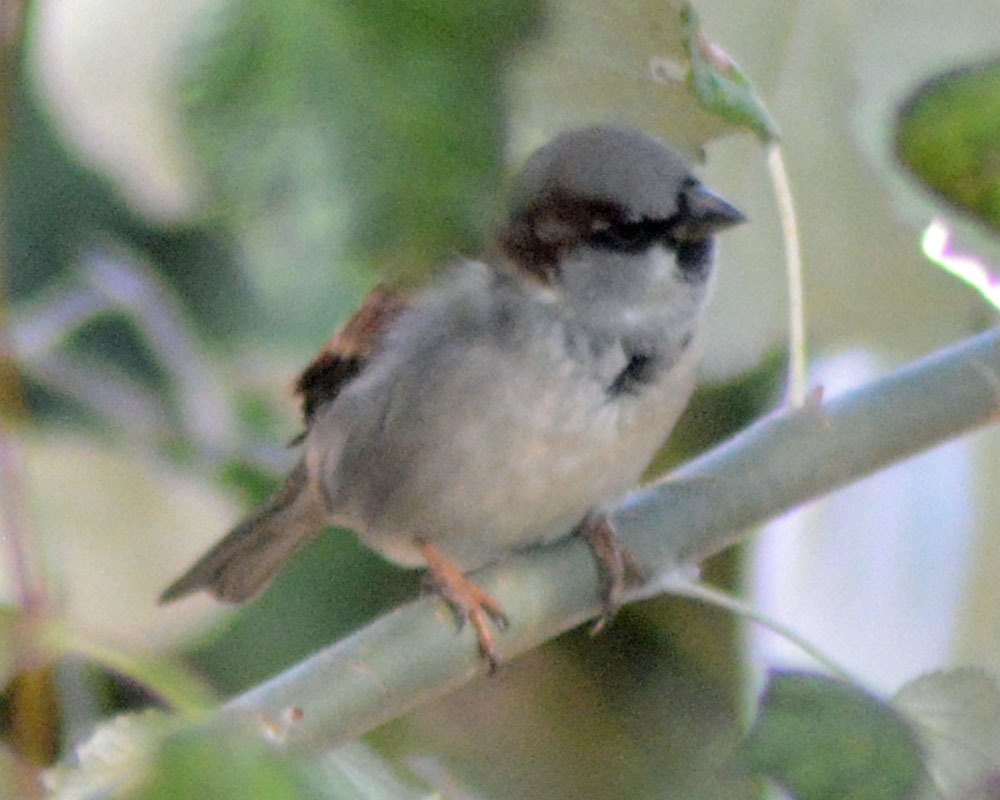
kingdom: Animalia
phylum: Chordata
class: Aves
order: Passeriformes
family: Passeridae
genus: Passer
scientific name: Passer domesticus
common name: House sparrow
